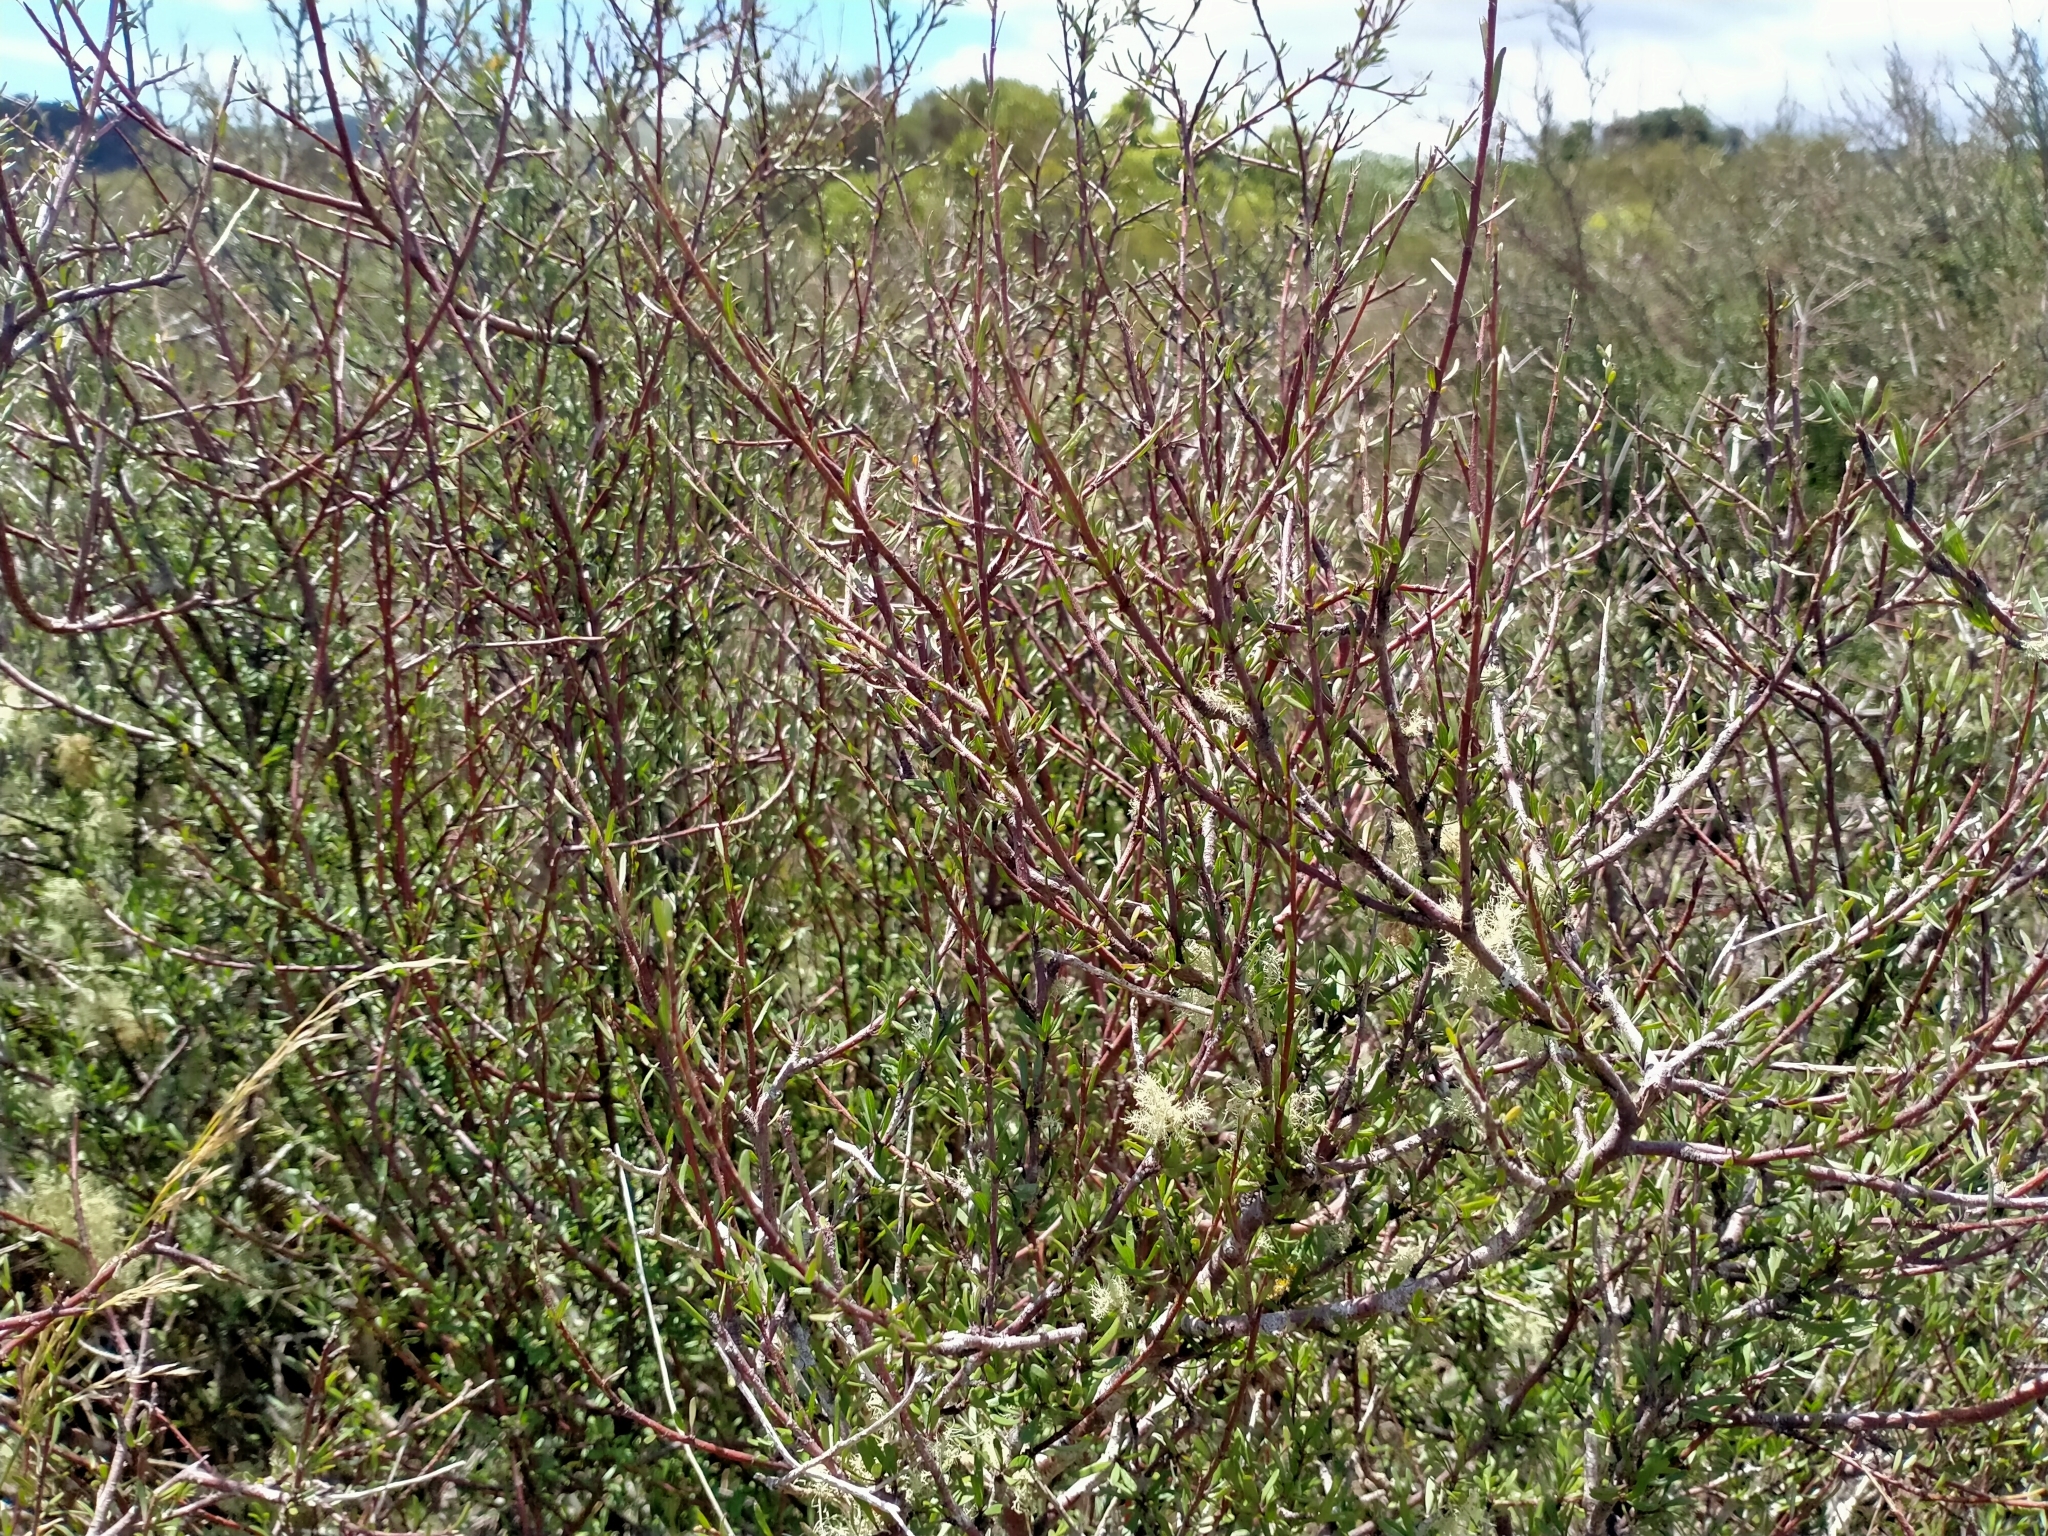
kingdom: Plantae
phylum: Tracheophyta
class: Magnoliopsida
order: Malvales
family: Malvaceae
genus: Plagianthus
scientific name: Plagianthus divaricatus
